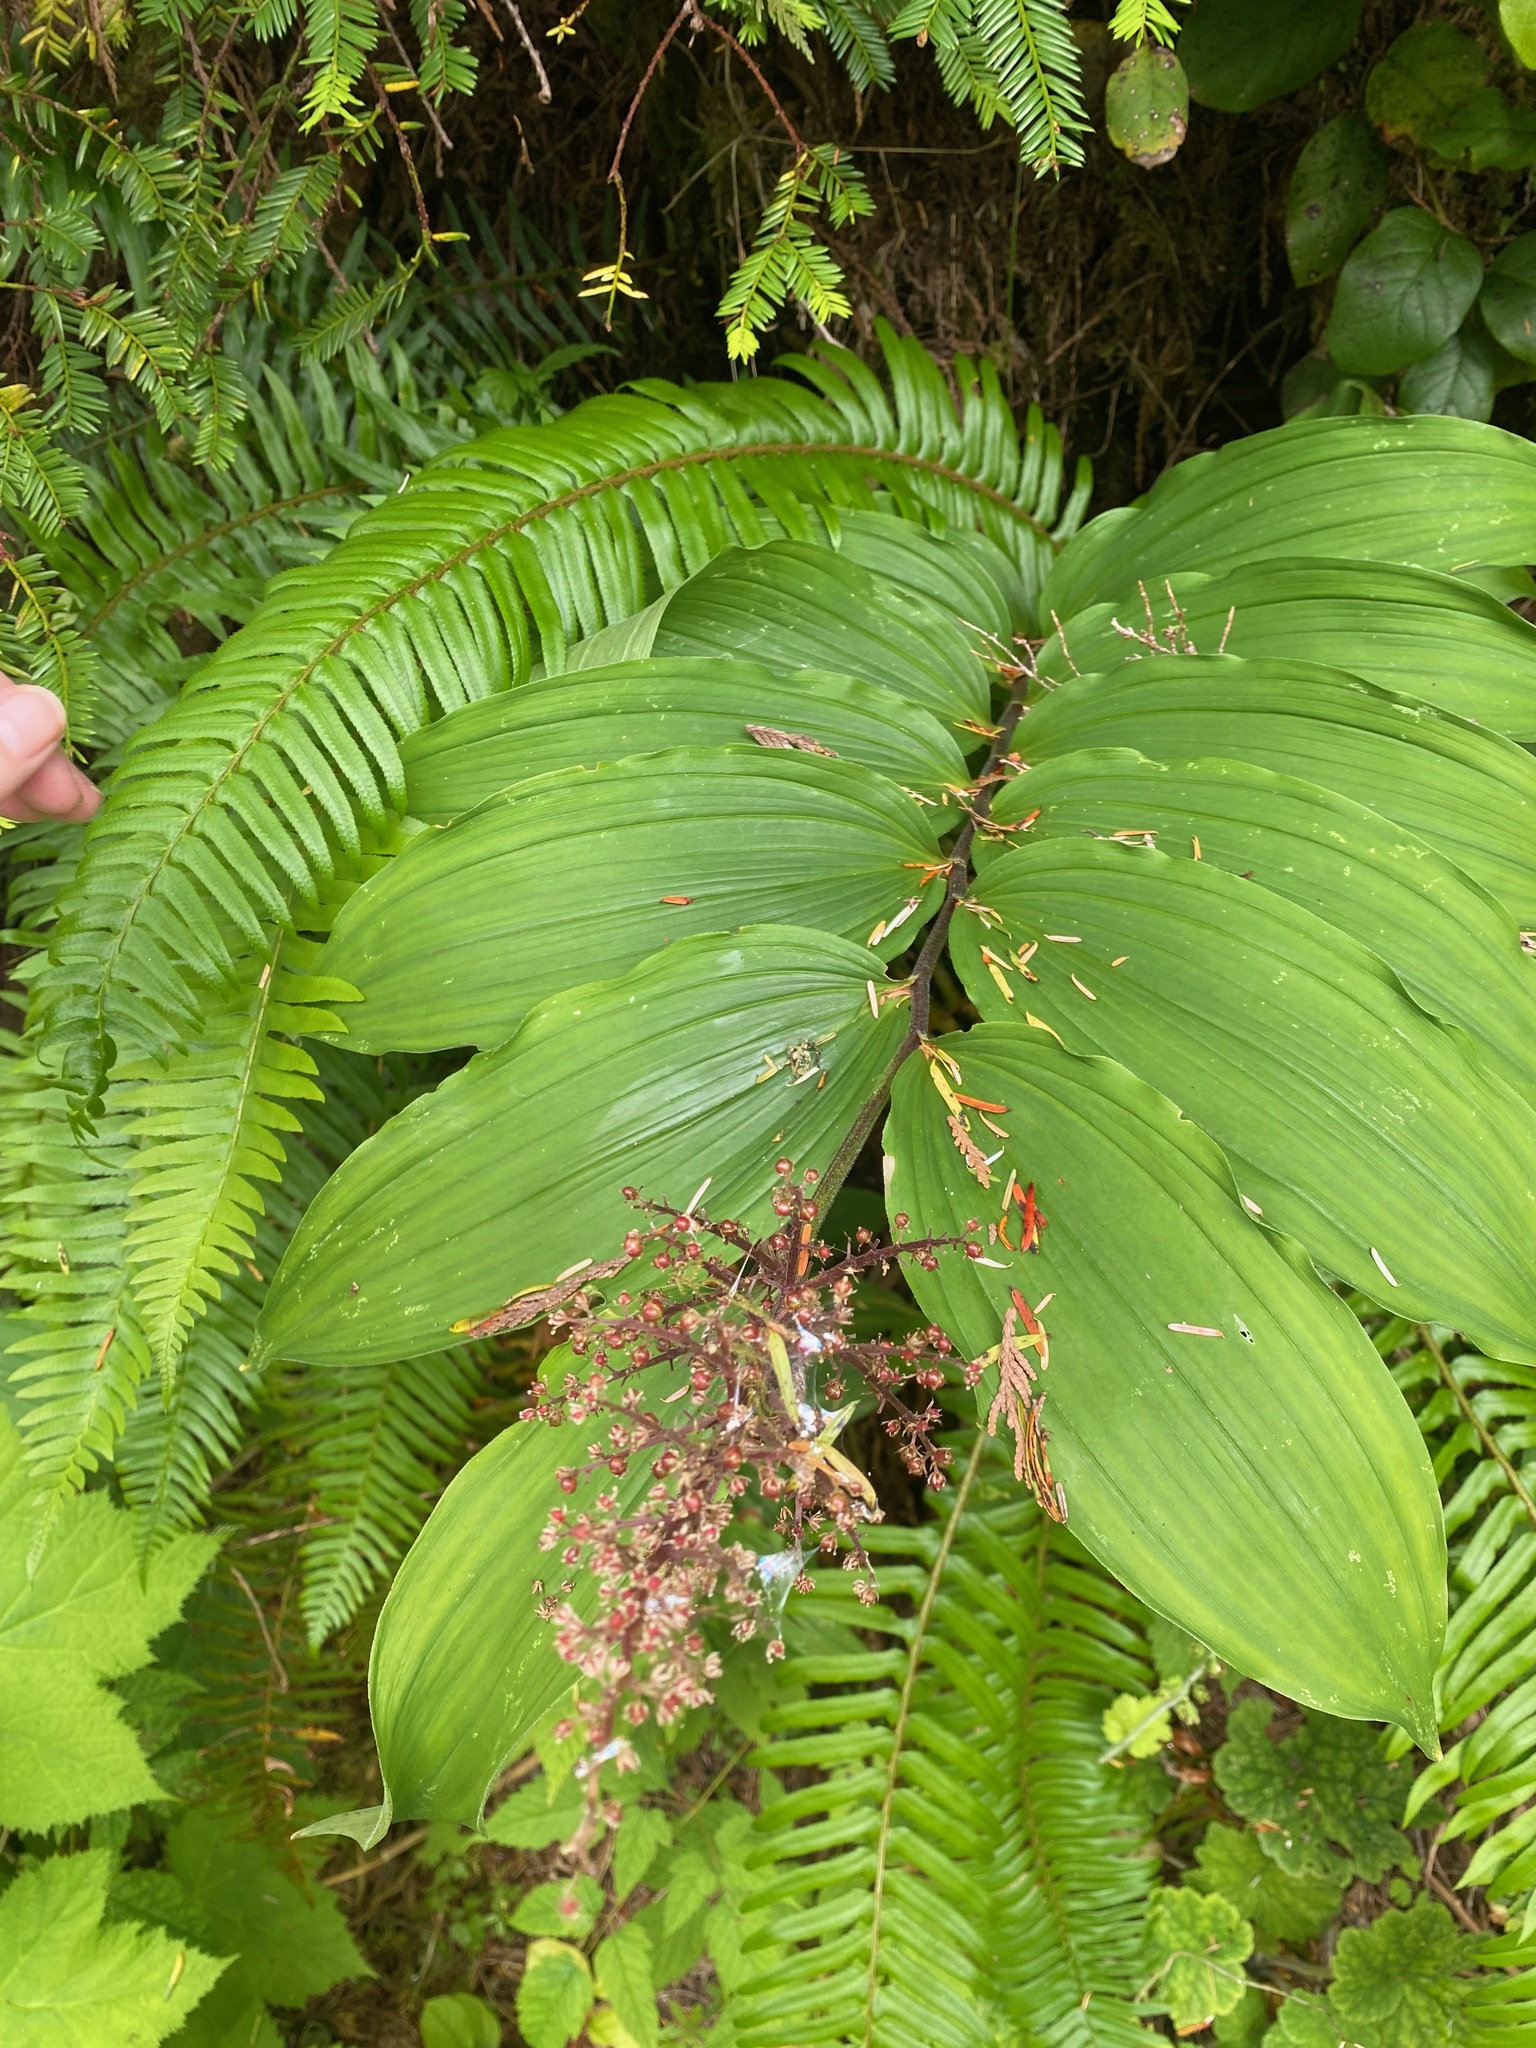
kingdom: Plantae
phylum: Tracheophyta
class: Liliopsida
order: Asparagales
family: Asparagaceae
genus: Maianthemum
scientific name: Maianthemum racemosum
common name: False spikenard
